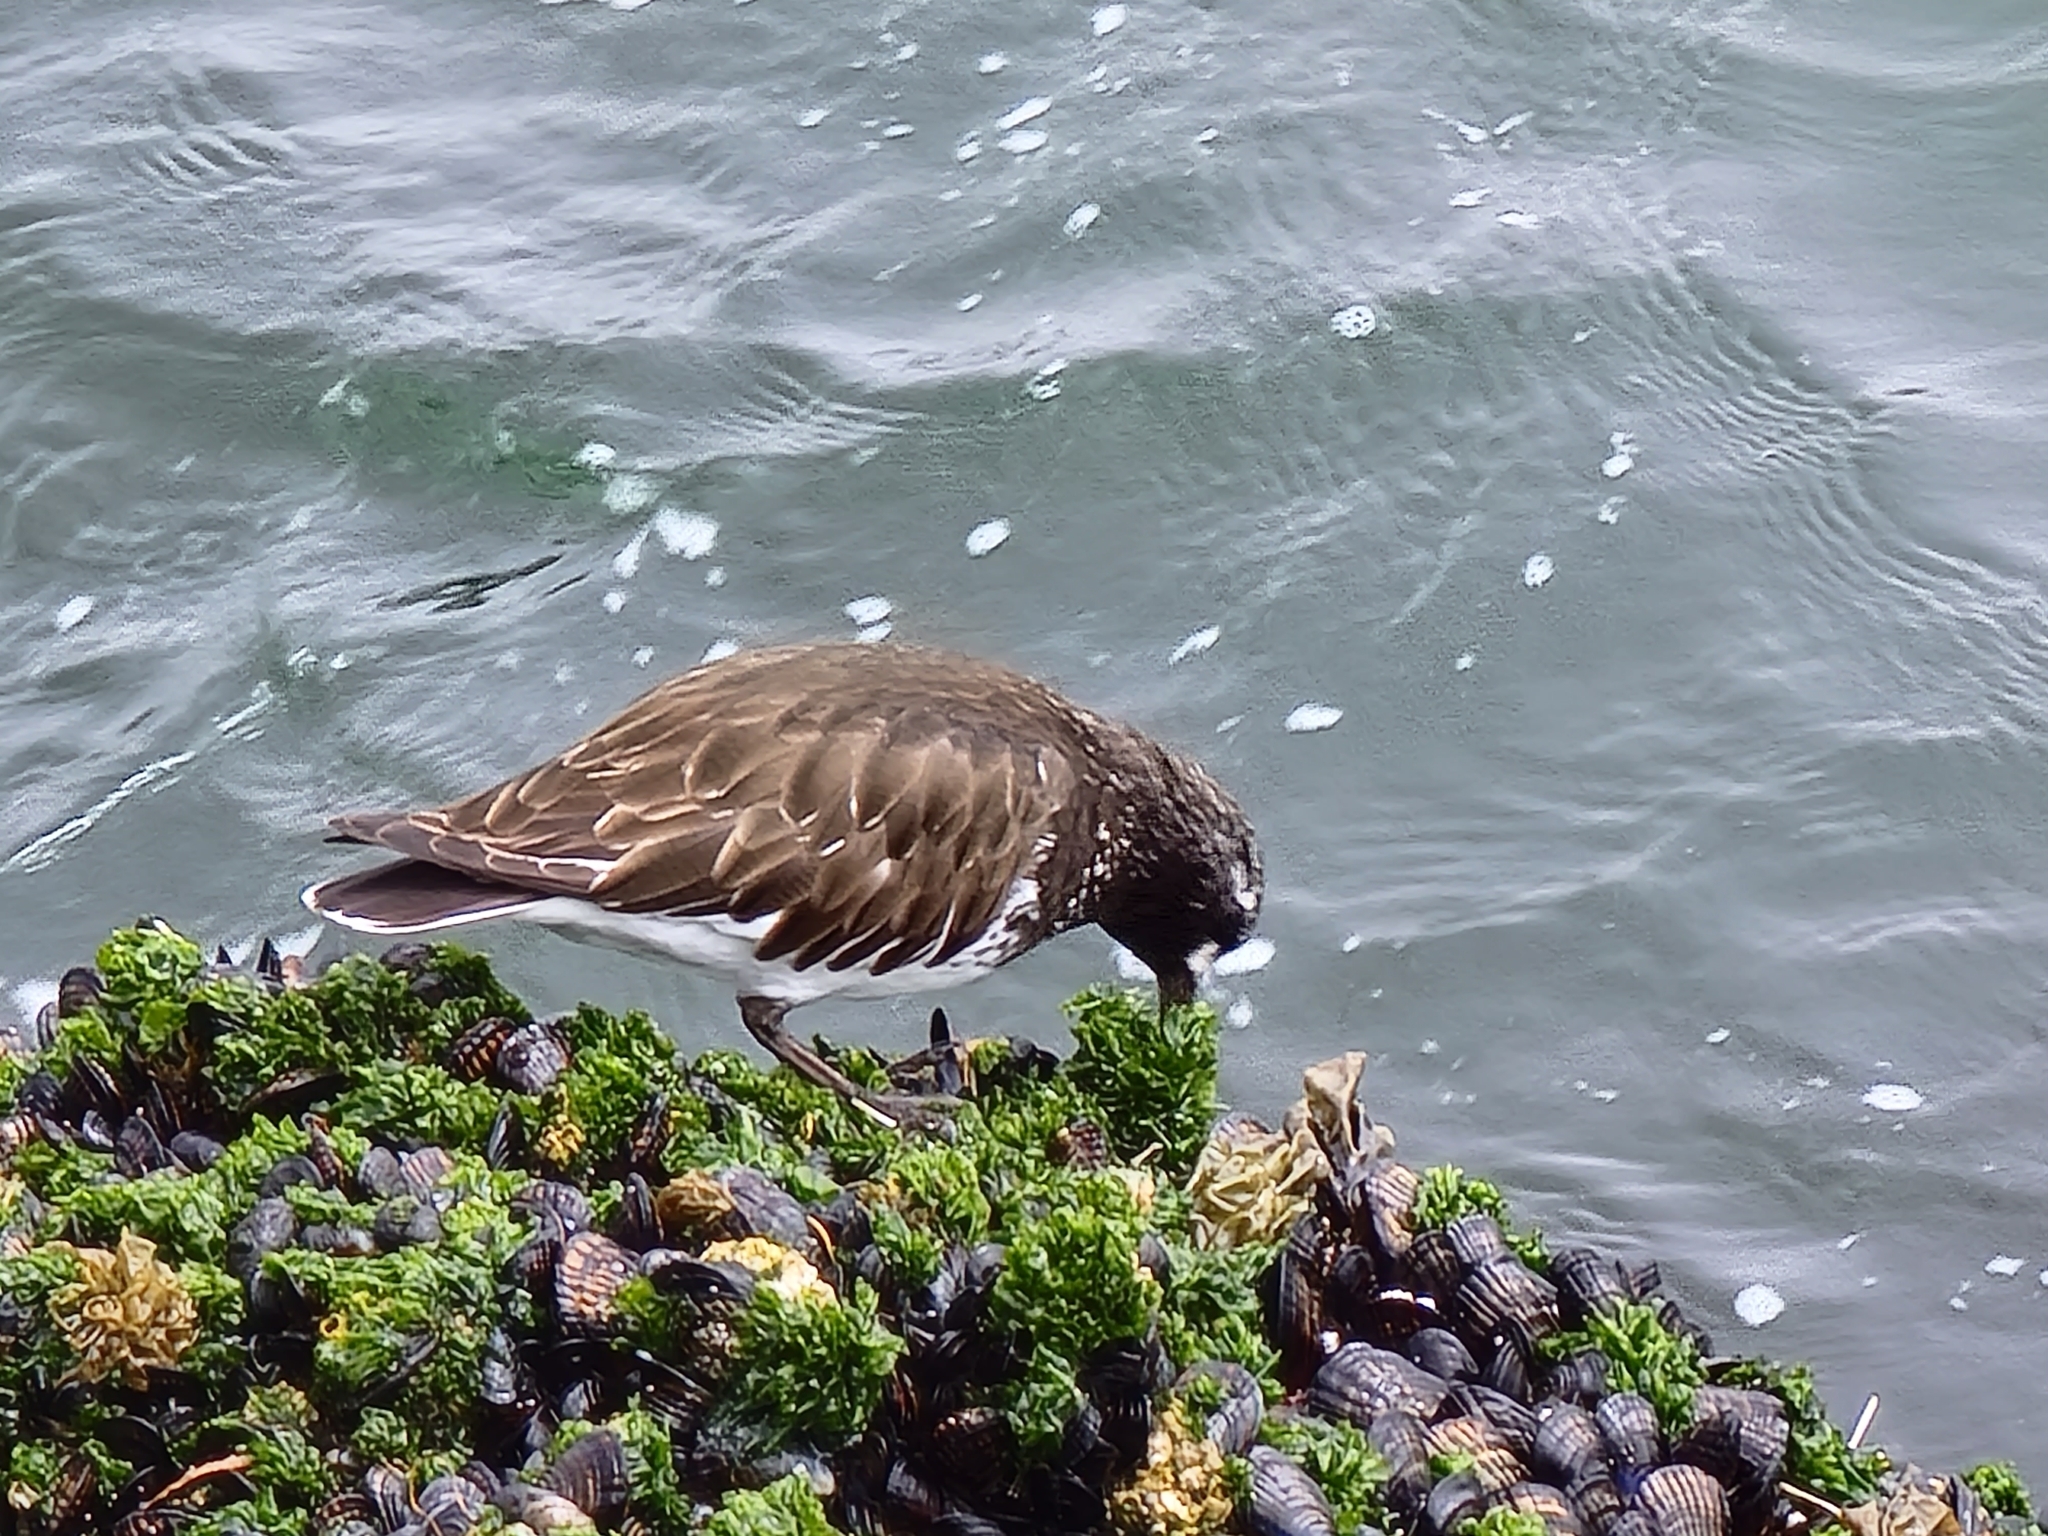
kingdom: Animalia
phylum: Chordata
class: Aves
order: Charadriiformes
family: Scolopacidae
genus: Arenaria
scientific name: Arenaria melanocephala
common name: Black turnstone
